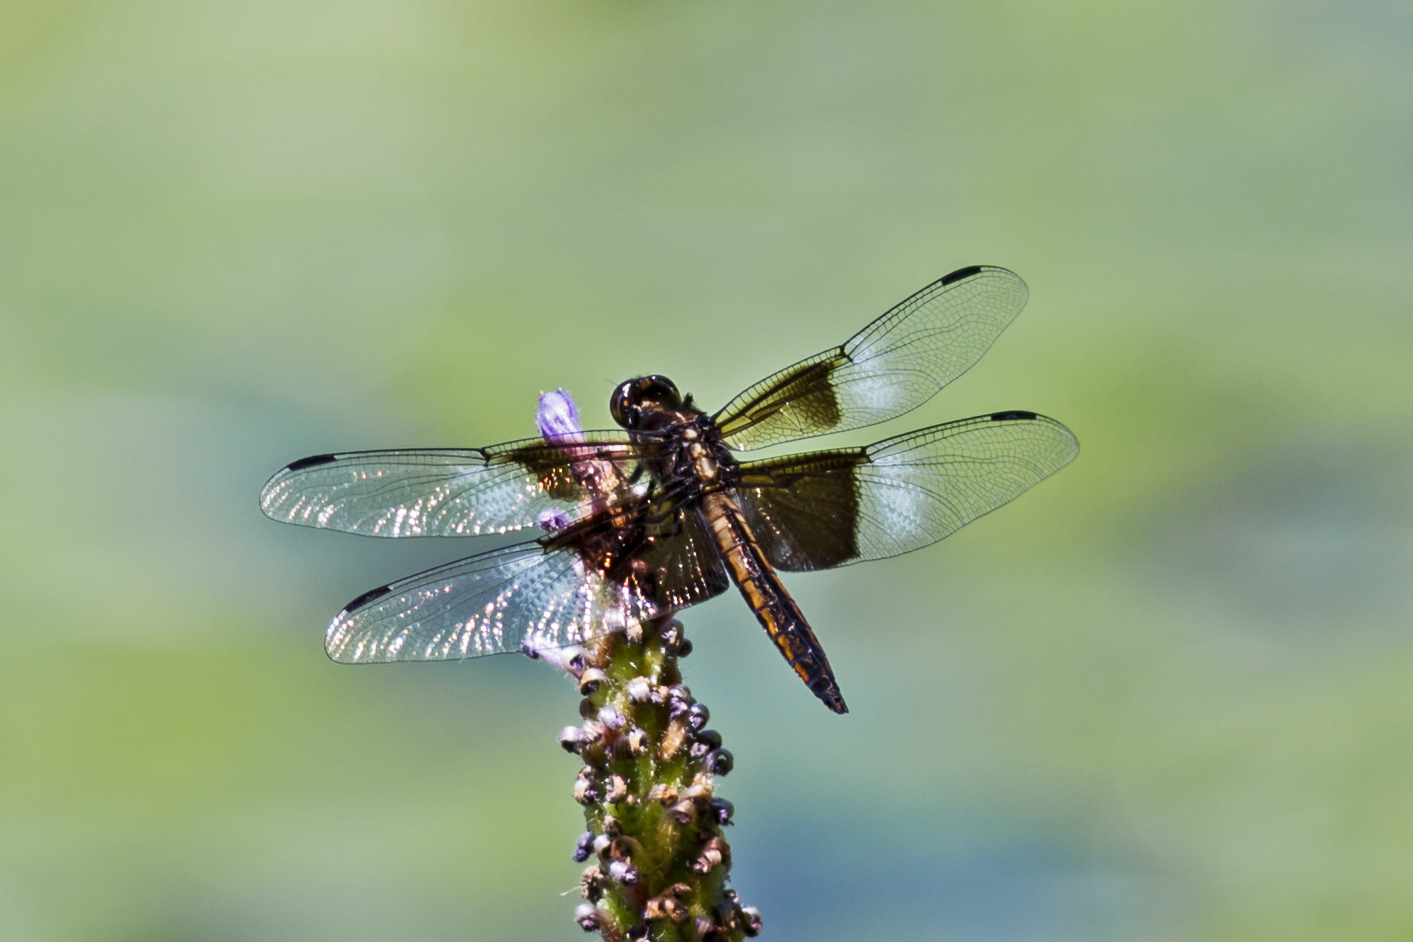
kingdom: Animalia
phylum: Arthropoda
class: Insecta
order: Odonata
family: Libellulidae
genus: Libellula
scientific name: Libellula luctuosa
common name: Widow skimmer
